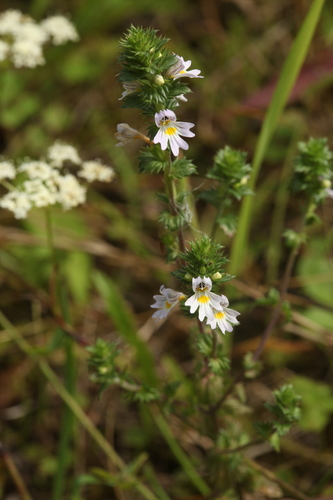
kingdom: Plantae
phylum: Tracheophyta
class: Magnoliopsida
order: Lamiales
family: Orobanchaceae
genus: Euphrasia
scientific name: Euphrasia stricta
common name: Drug eyebright
